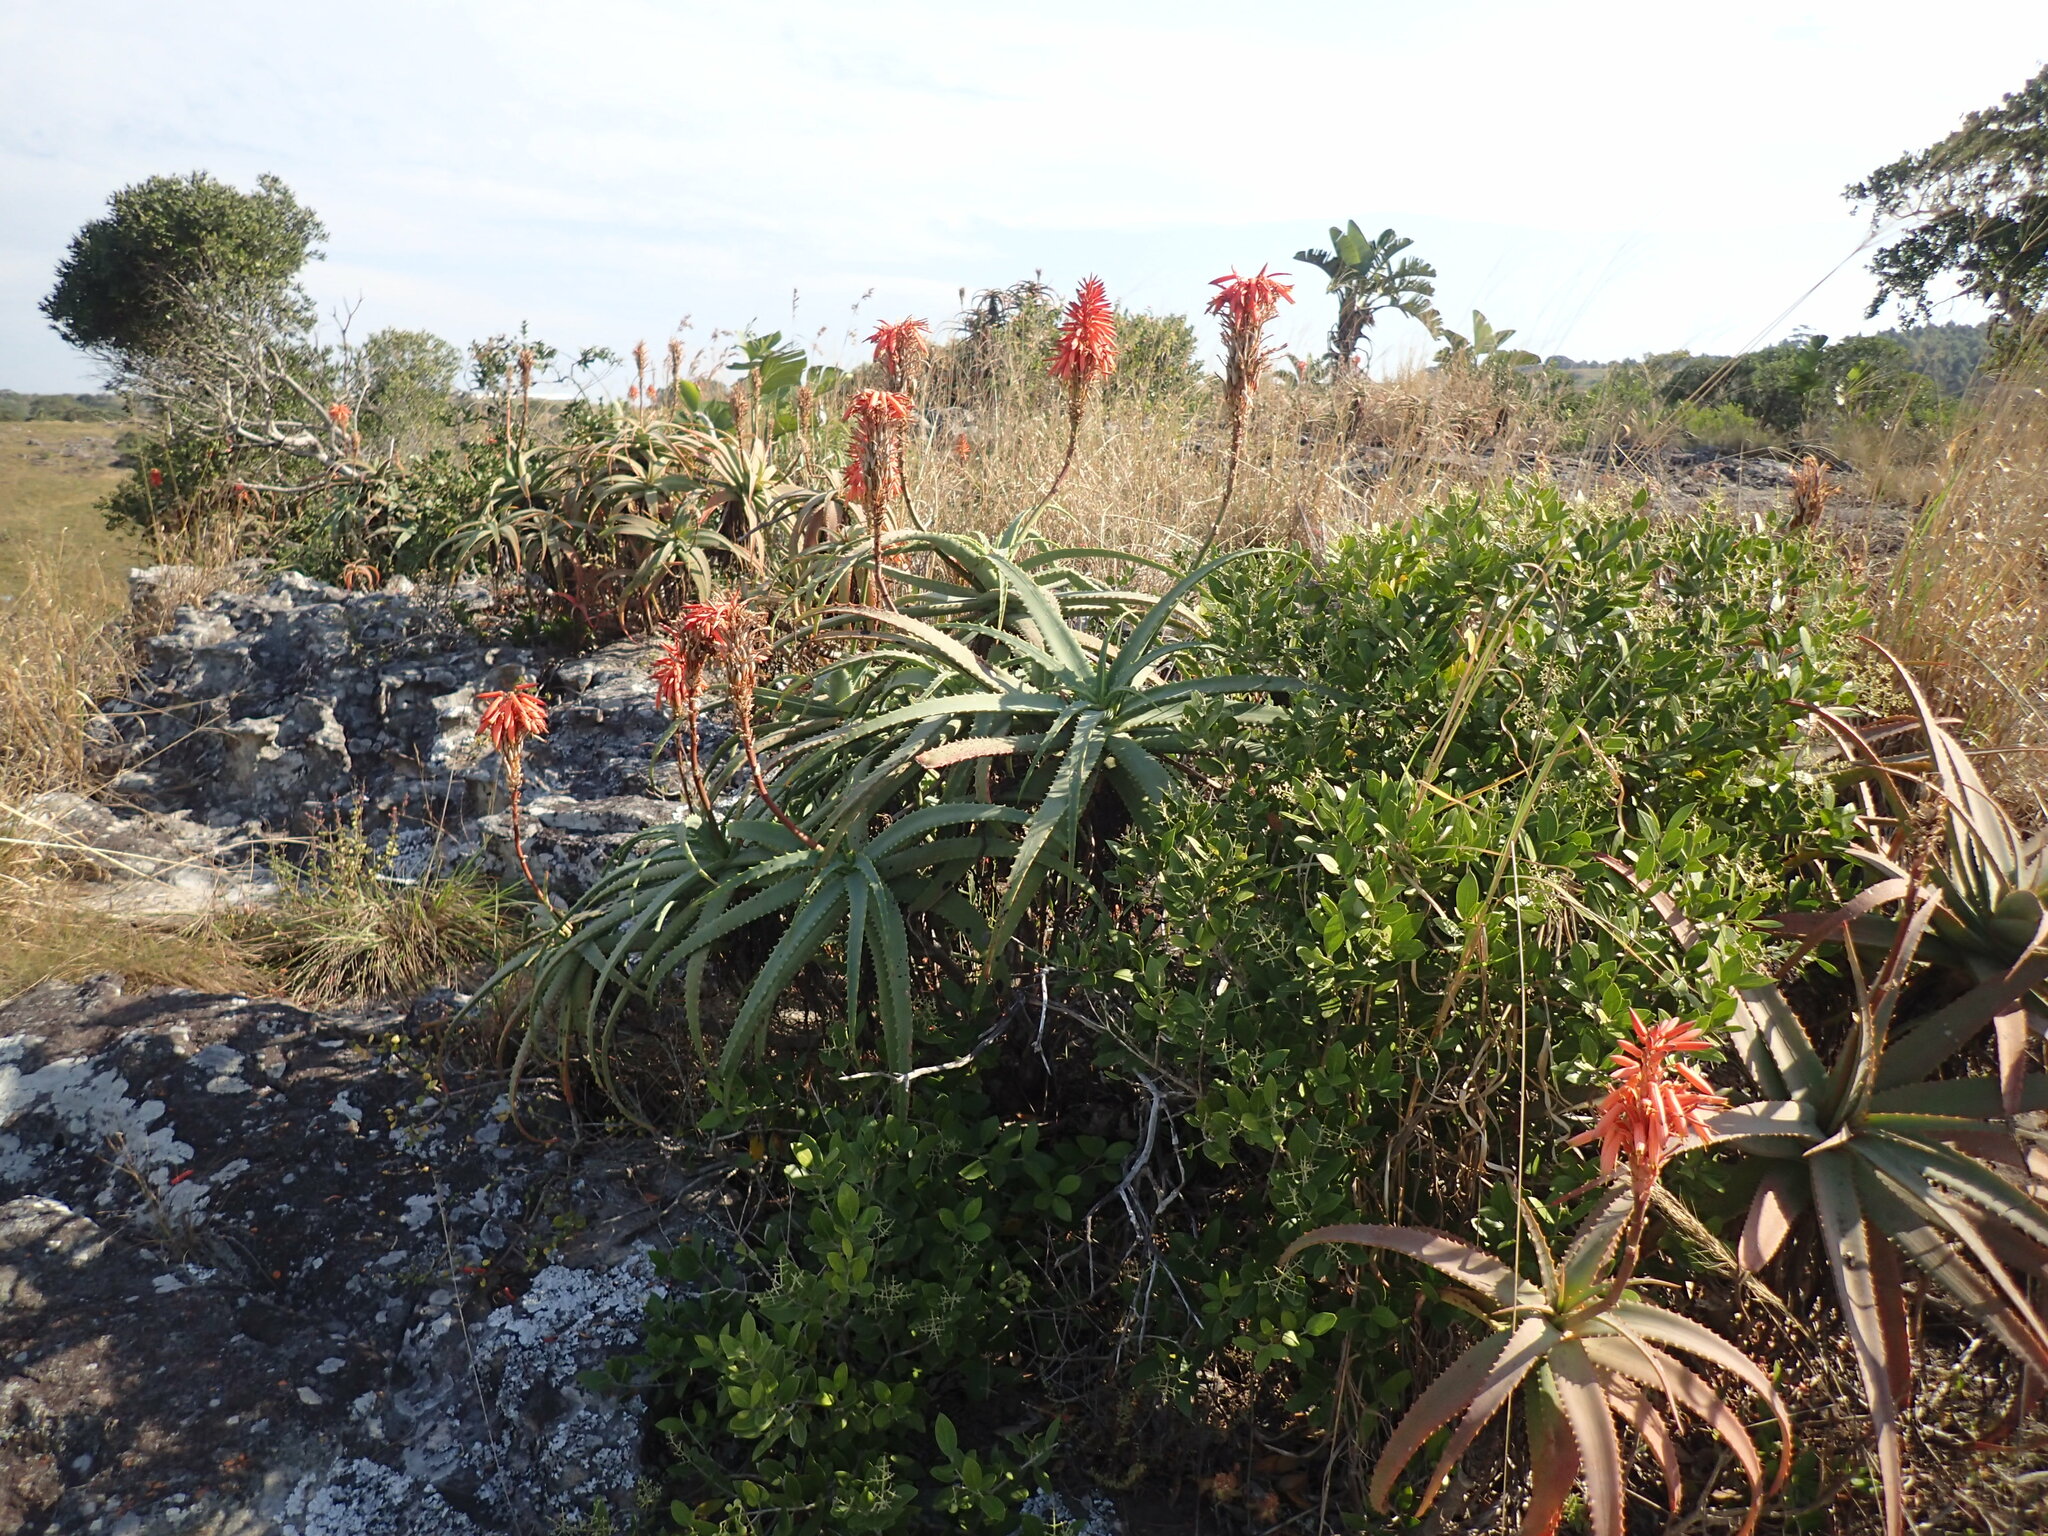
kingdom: Plantae
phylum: Tracheophyta
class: Liliopsida
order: Asparagales
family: Asphodelaceae
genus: Aloe
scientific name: Aloe arborescens
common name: Candelabra aloe
